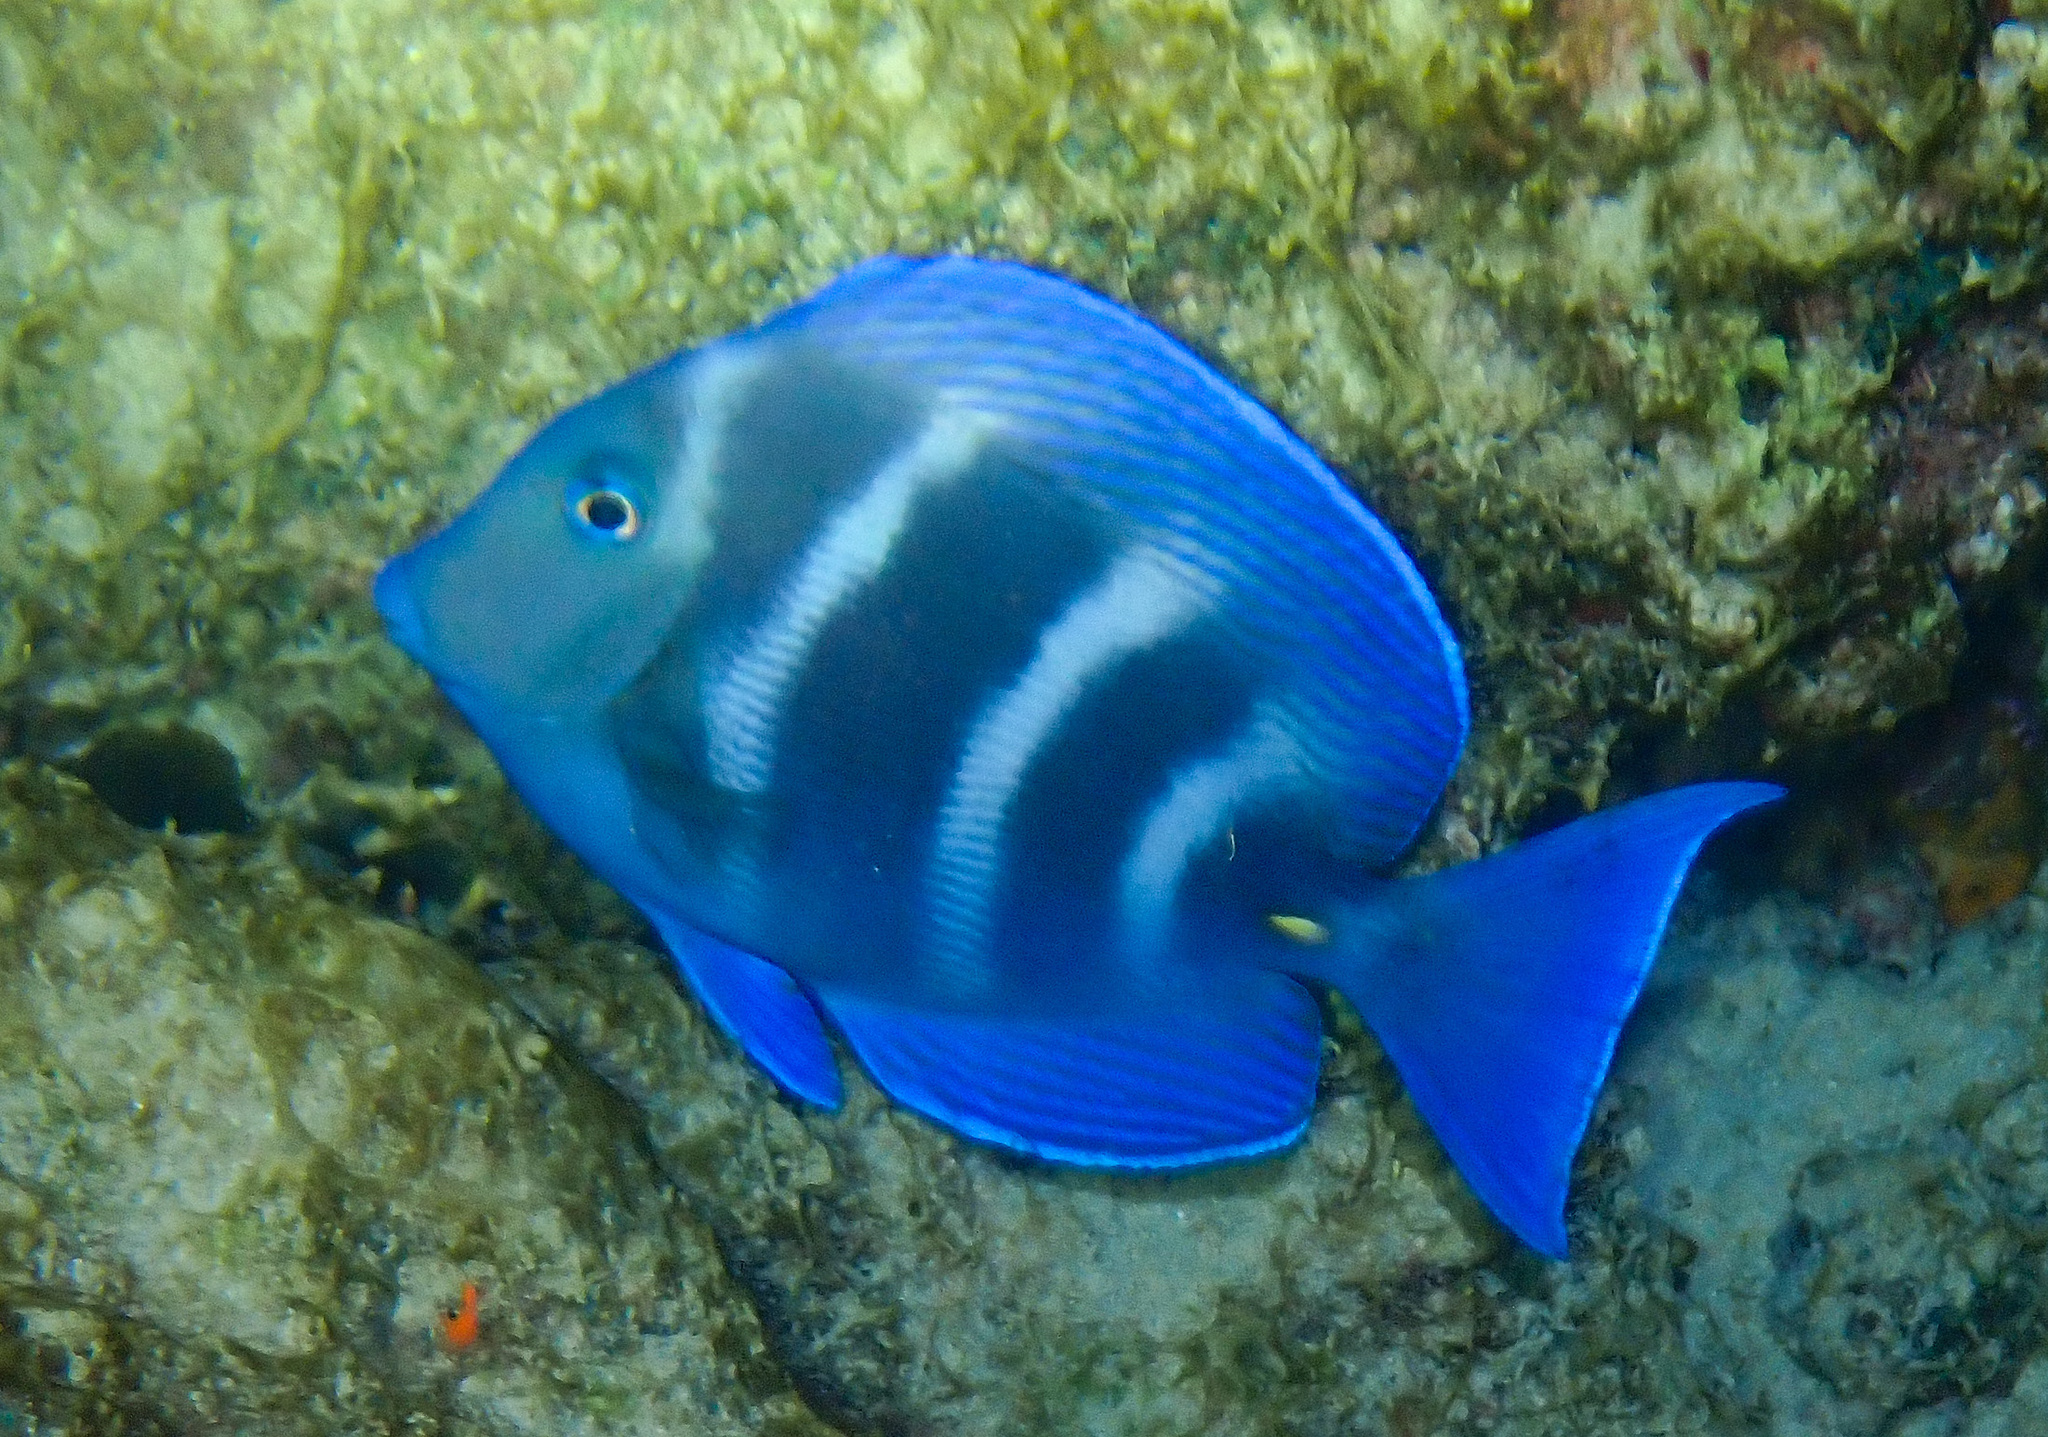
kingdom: Animalia
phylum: Chordata
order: Perciformes
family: Acanthuridae
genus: Acanthurus
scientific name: Acanthurus coeruleus
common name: Blue tang
